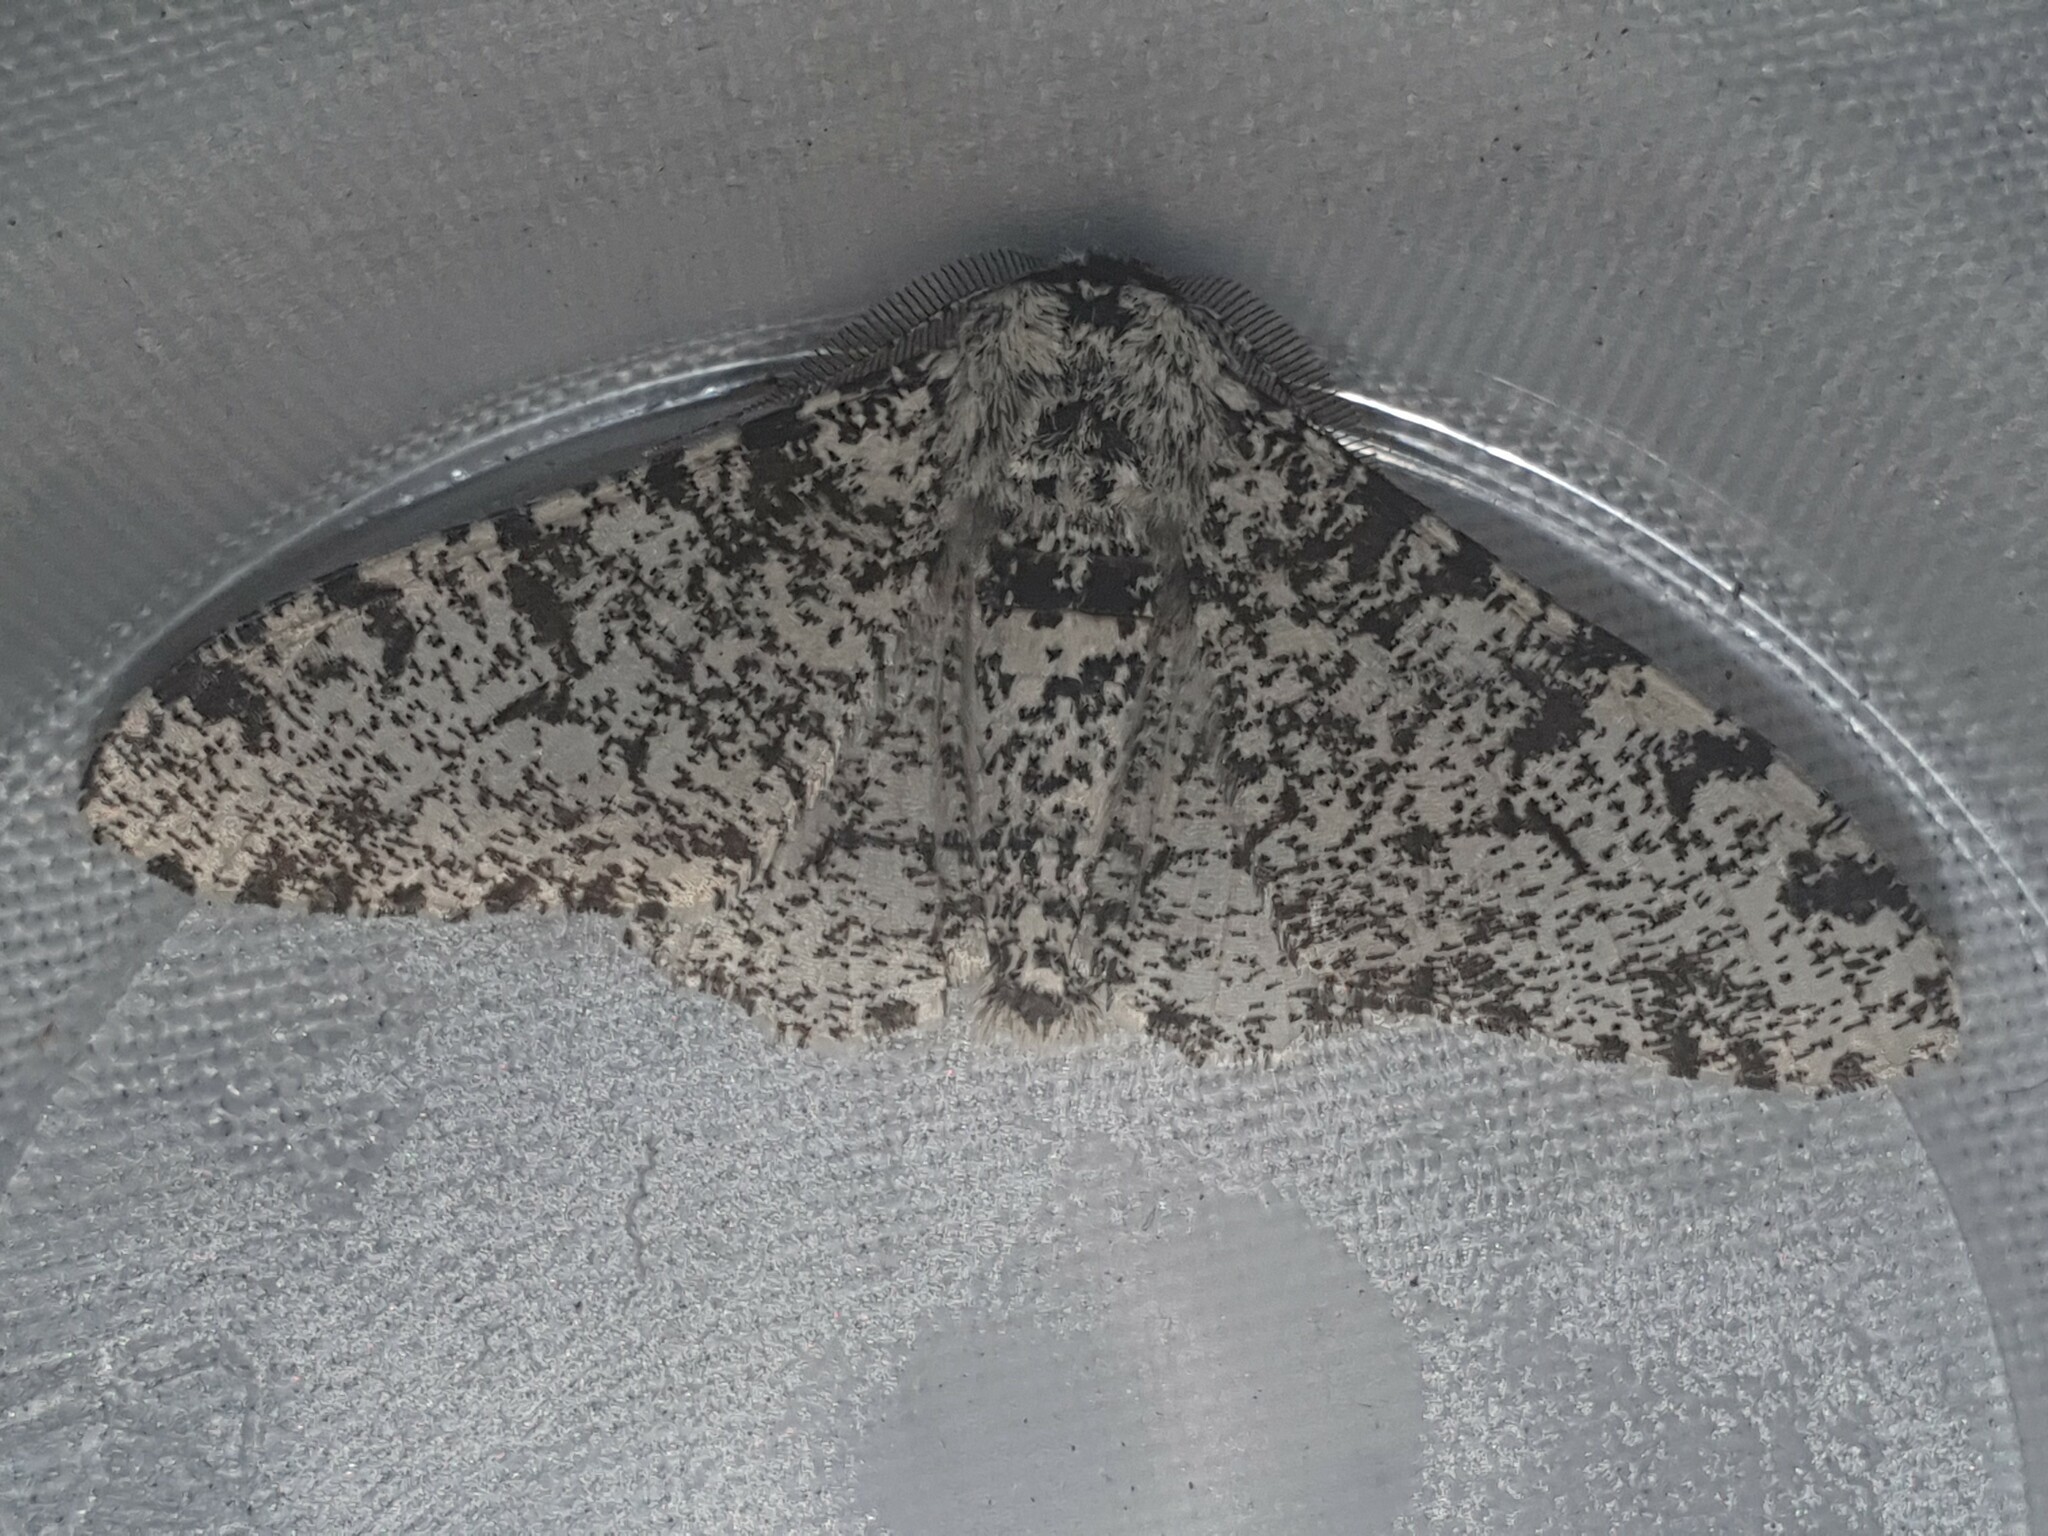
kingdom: Animalia
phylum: Arthropoda
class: Insecta
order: Lepidoptera
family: Geometridae
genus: Biston
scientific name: Biston betularia
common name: Peppered moth
